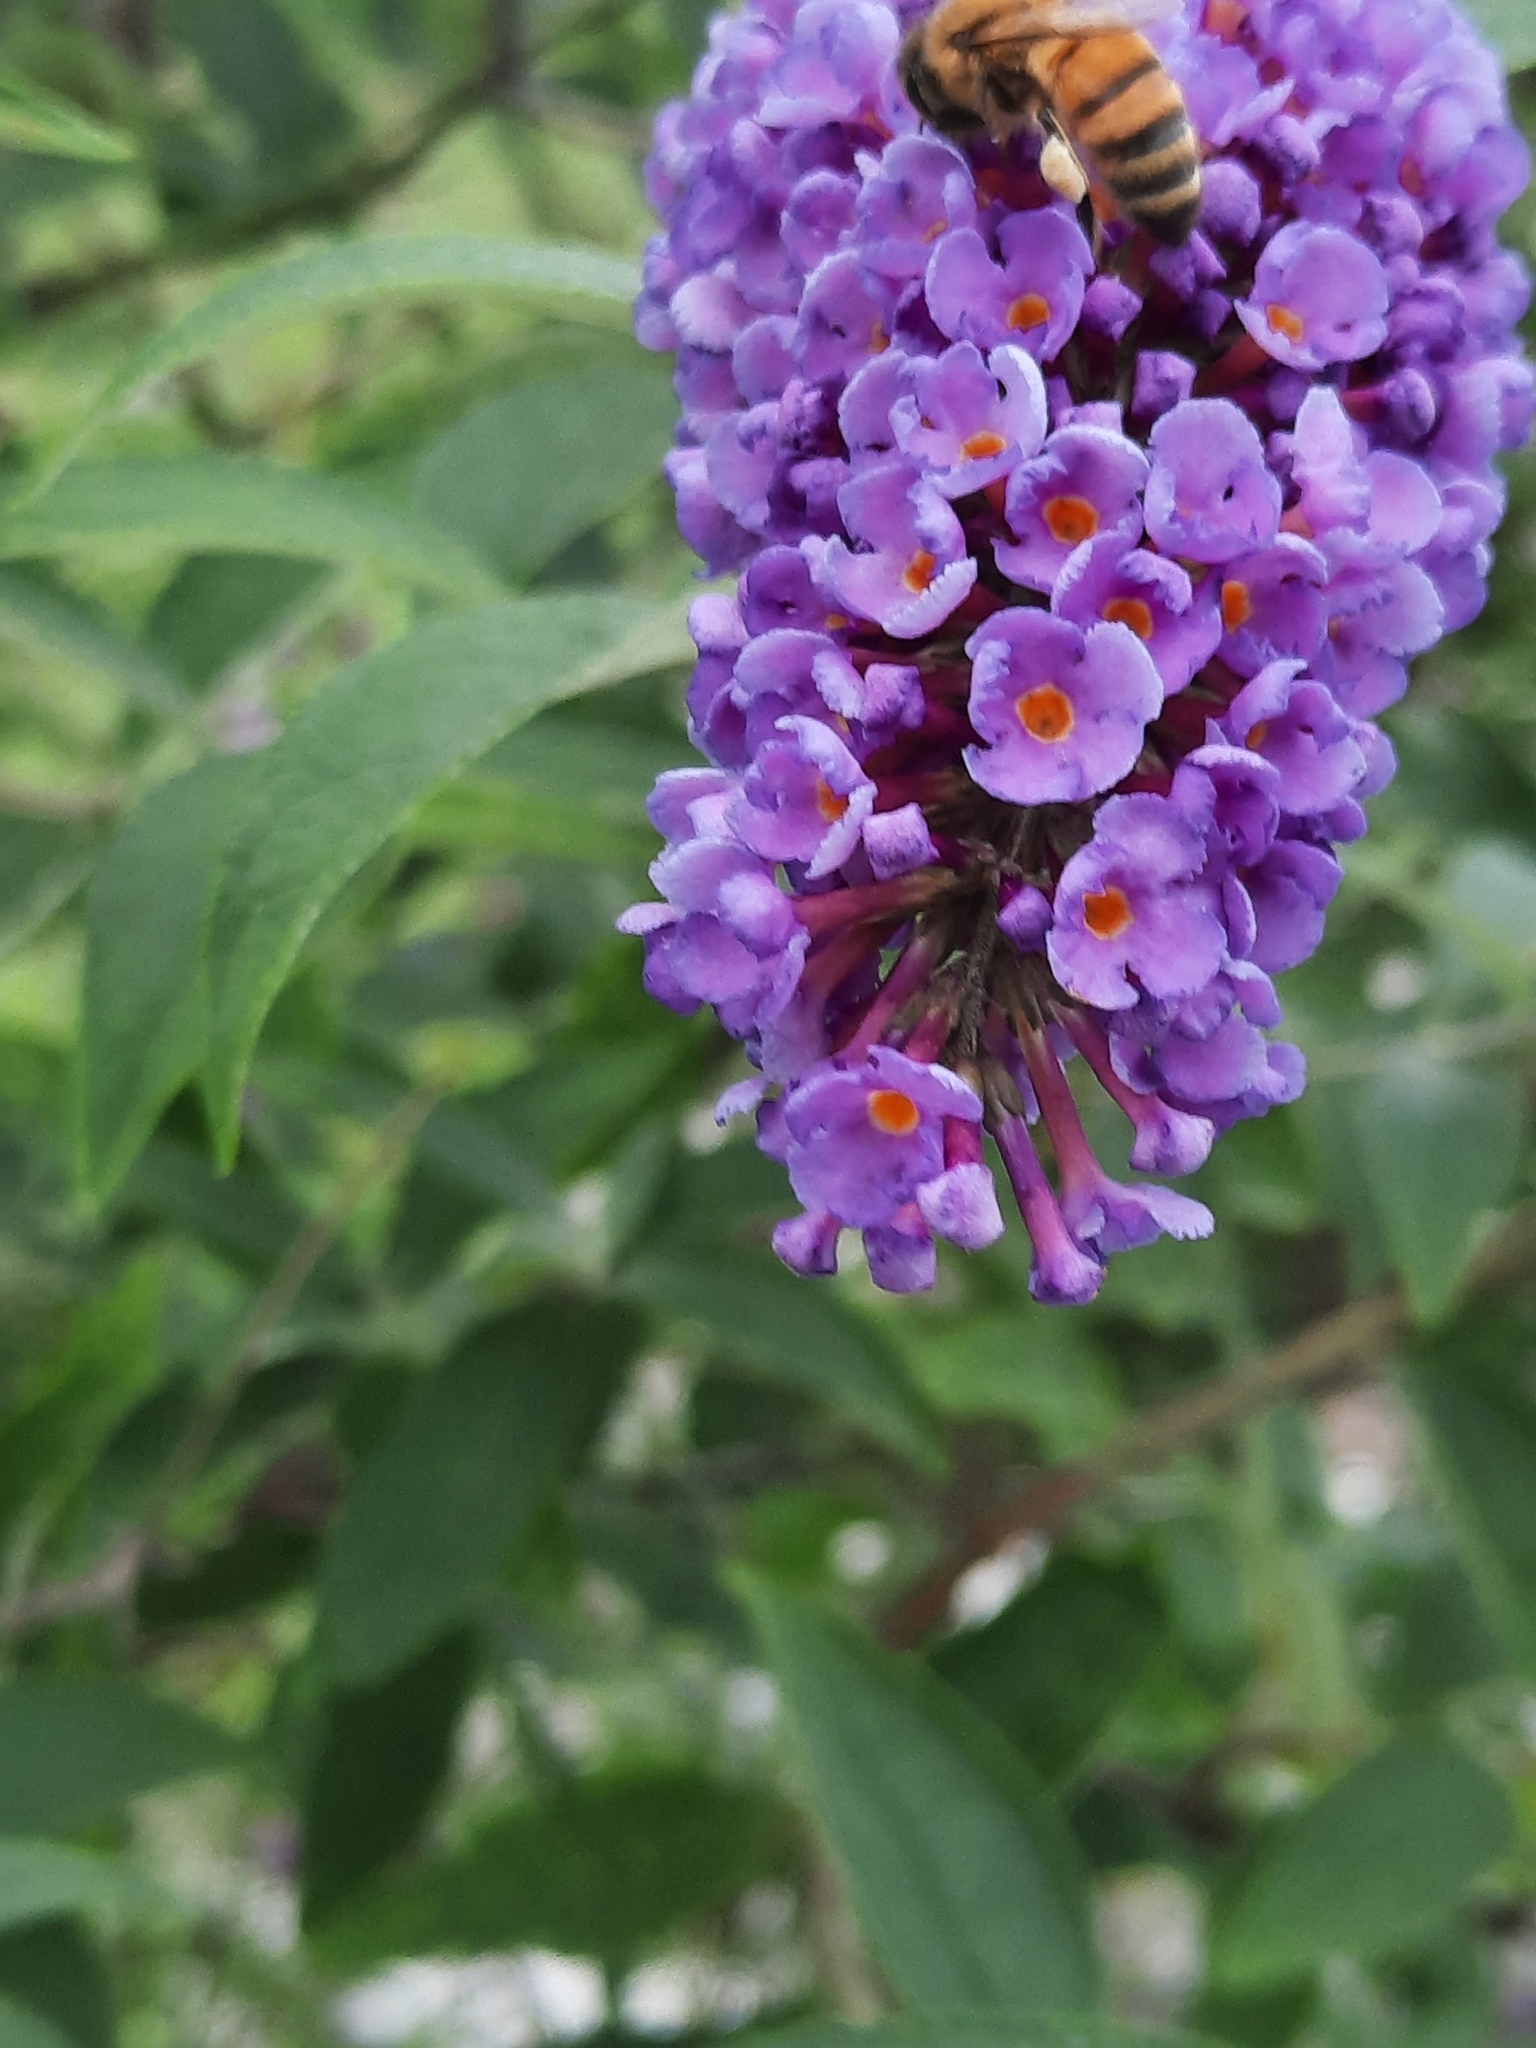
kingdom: Animalia
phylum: Arthropoda
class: Insecta
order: Hymenoptera
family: Apidae
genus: Apis
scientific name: Apis mellifera
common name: Honey bee
